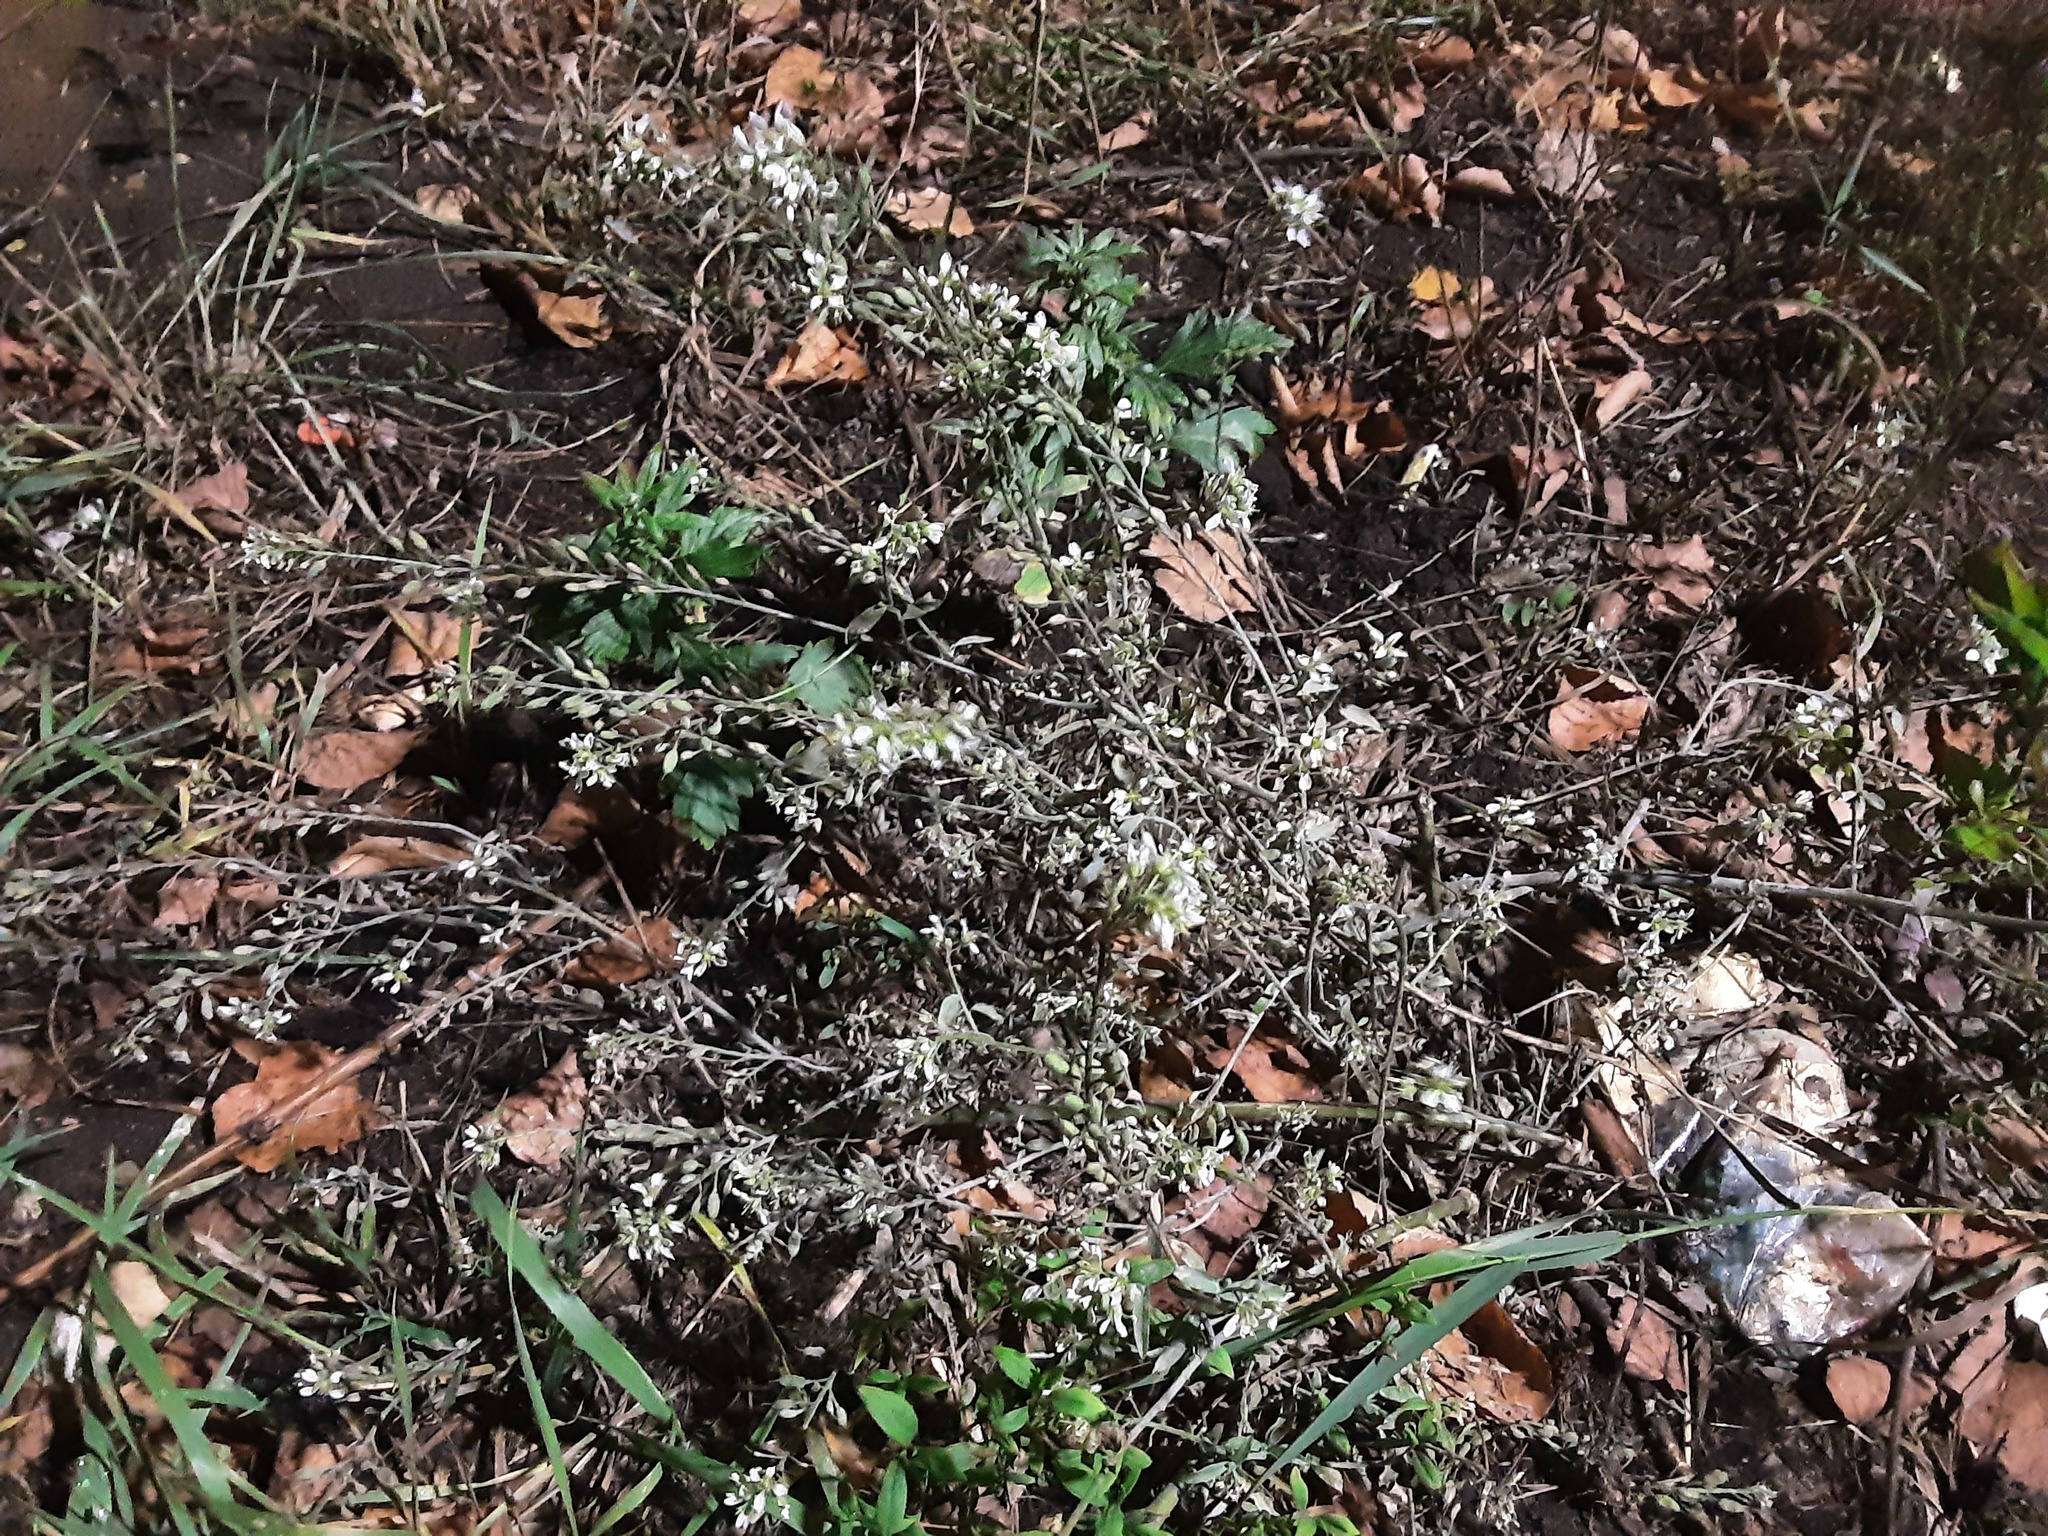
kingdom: Plantae
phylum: Tracheophyta
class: Magnoliopsida
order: Brassicales
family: Brassicaceae
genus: Berteroa
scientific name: Berteroa incana
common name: Hoary alison
